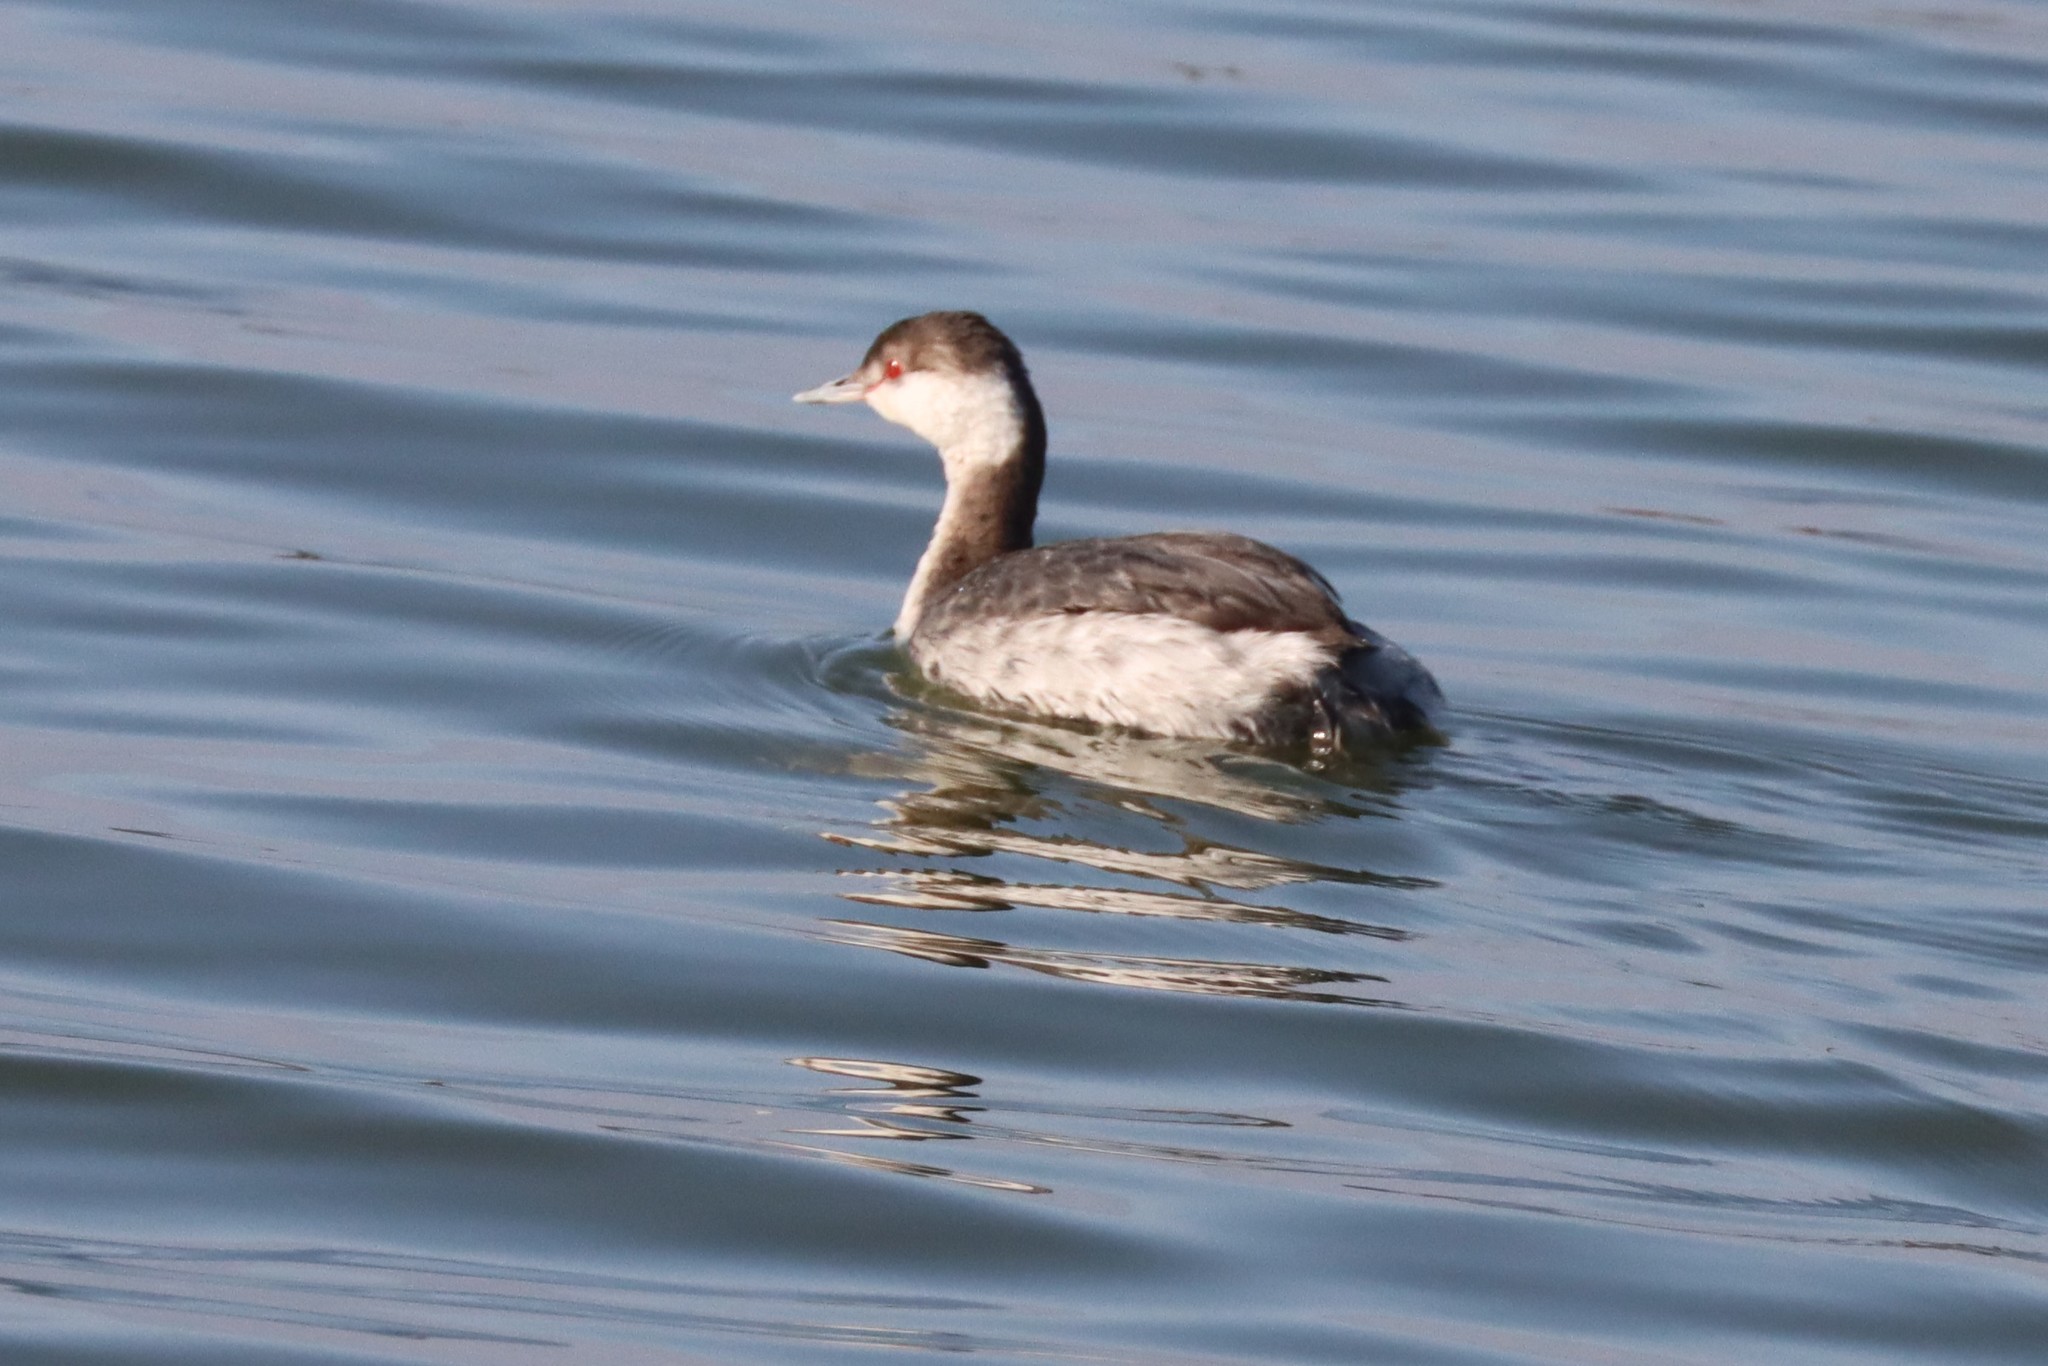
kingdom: Animalia
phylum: Chordata
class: Aves
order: Podicipediformes
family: Podicipedidae
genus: Podiceps
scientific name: Podiceps auritus
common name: Horned grebe
